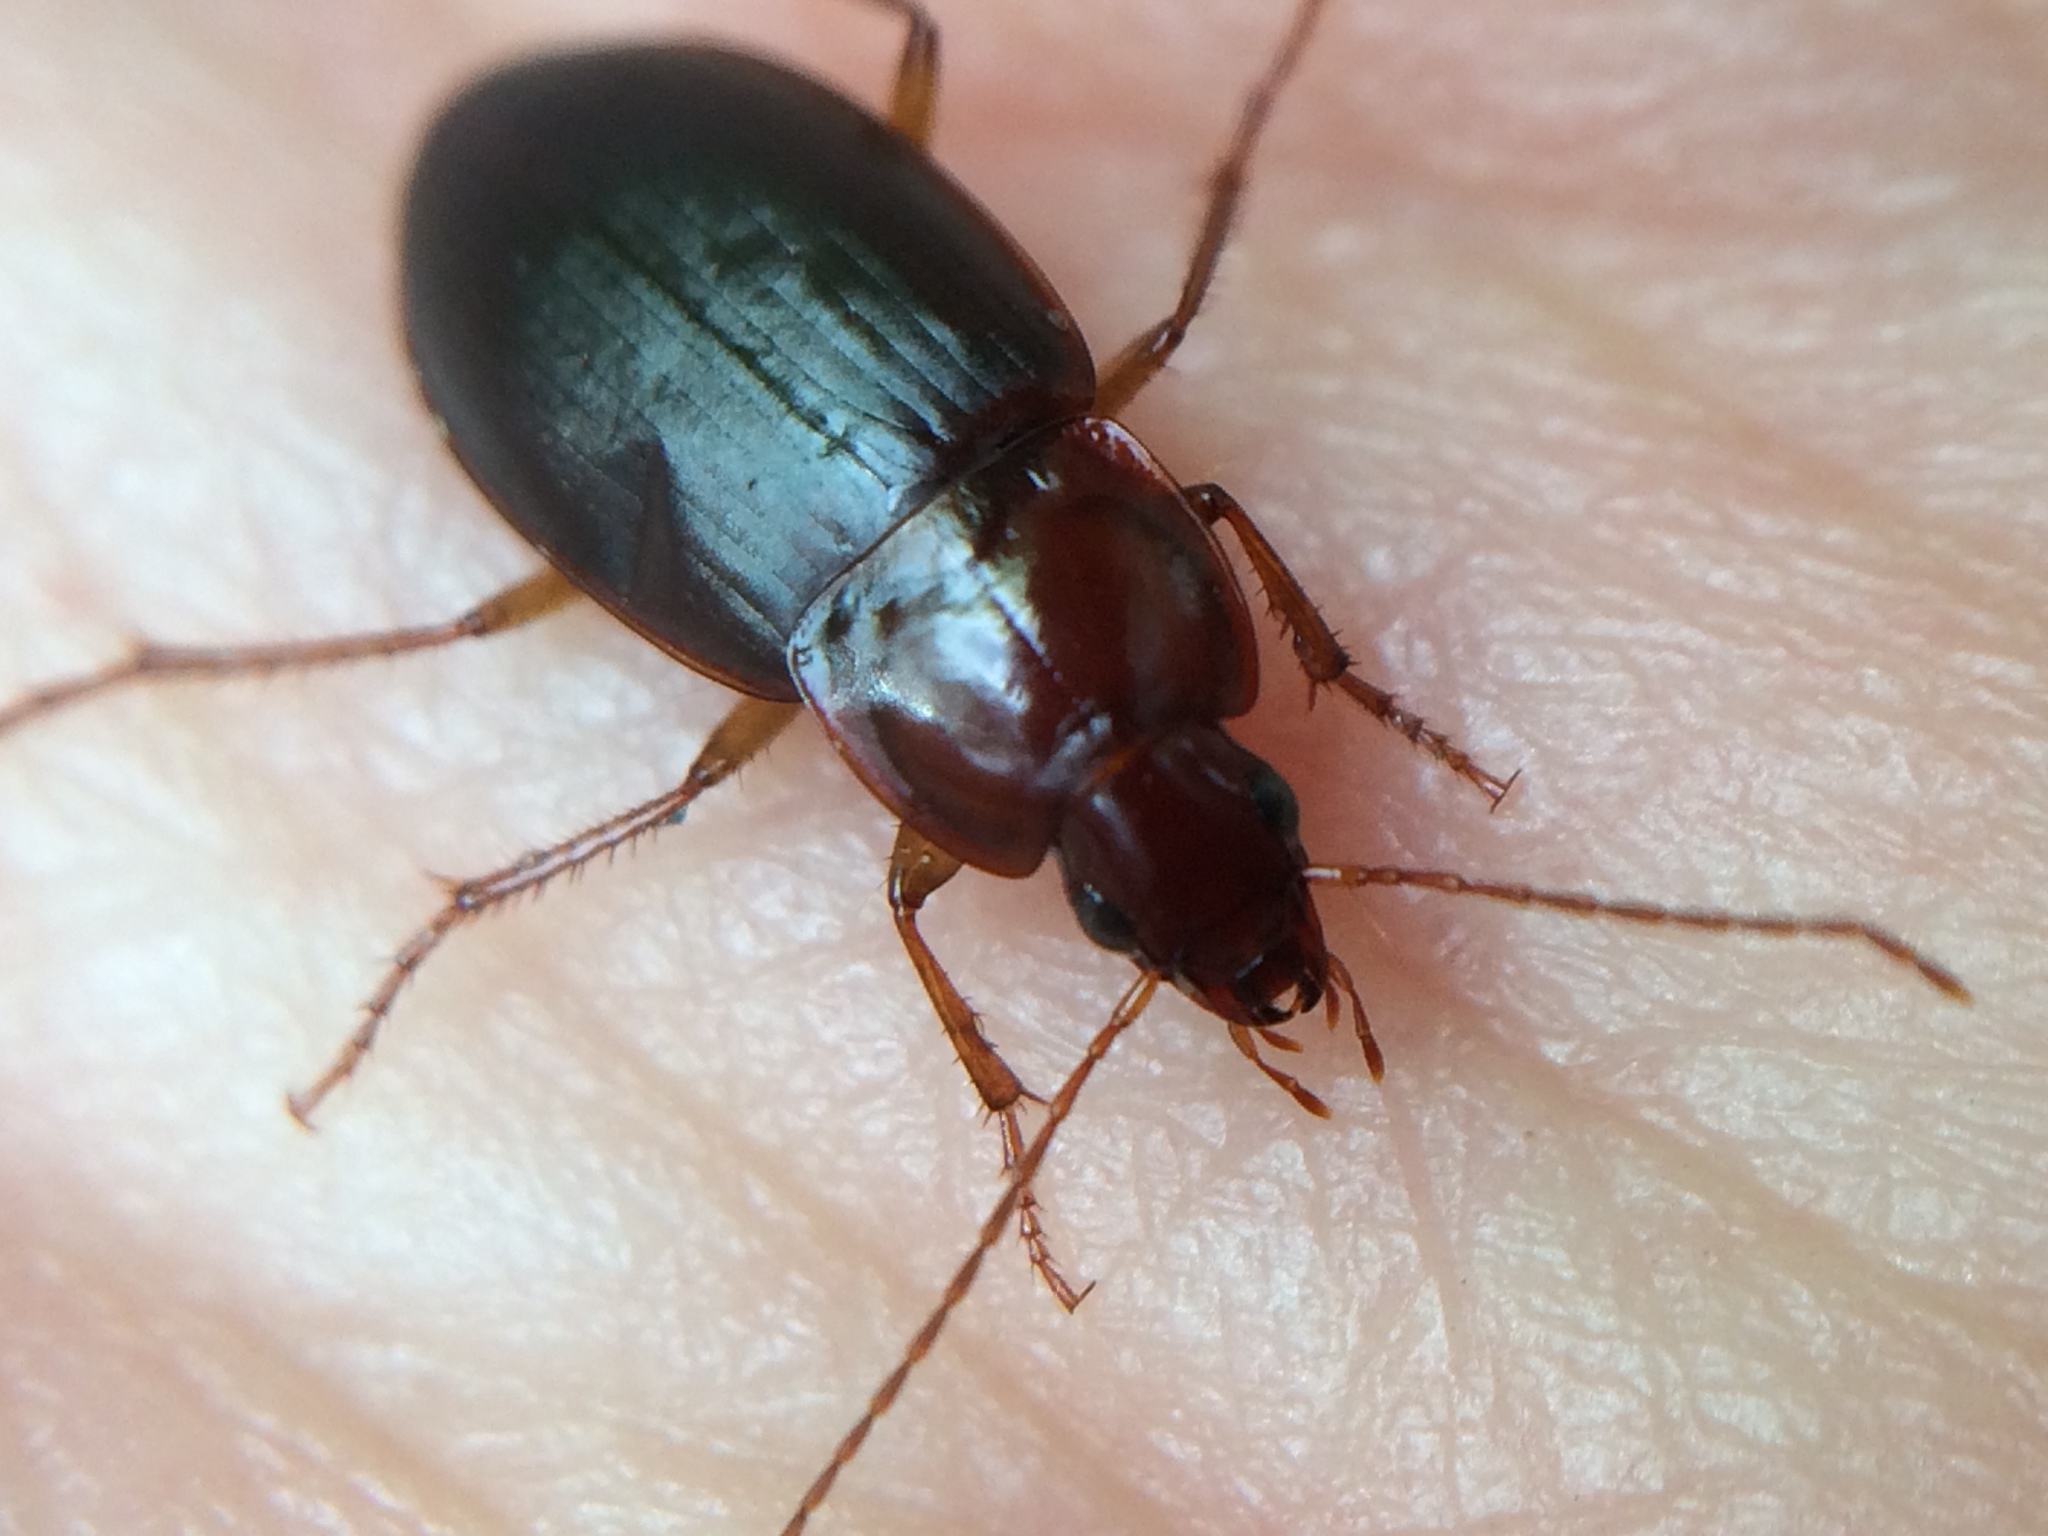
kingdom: Animalia
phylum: Arthropoda
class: Insecta
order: Coleoptera
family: Carabidae
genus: Calathus
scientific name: Calathus ruficollis
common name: Red-collared harp ground beetle
